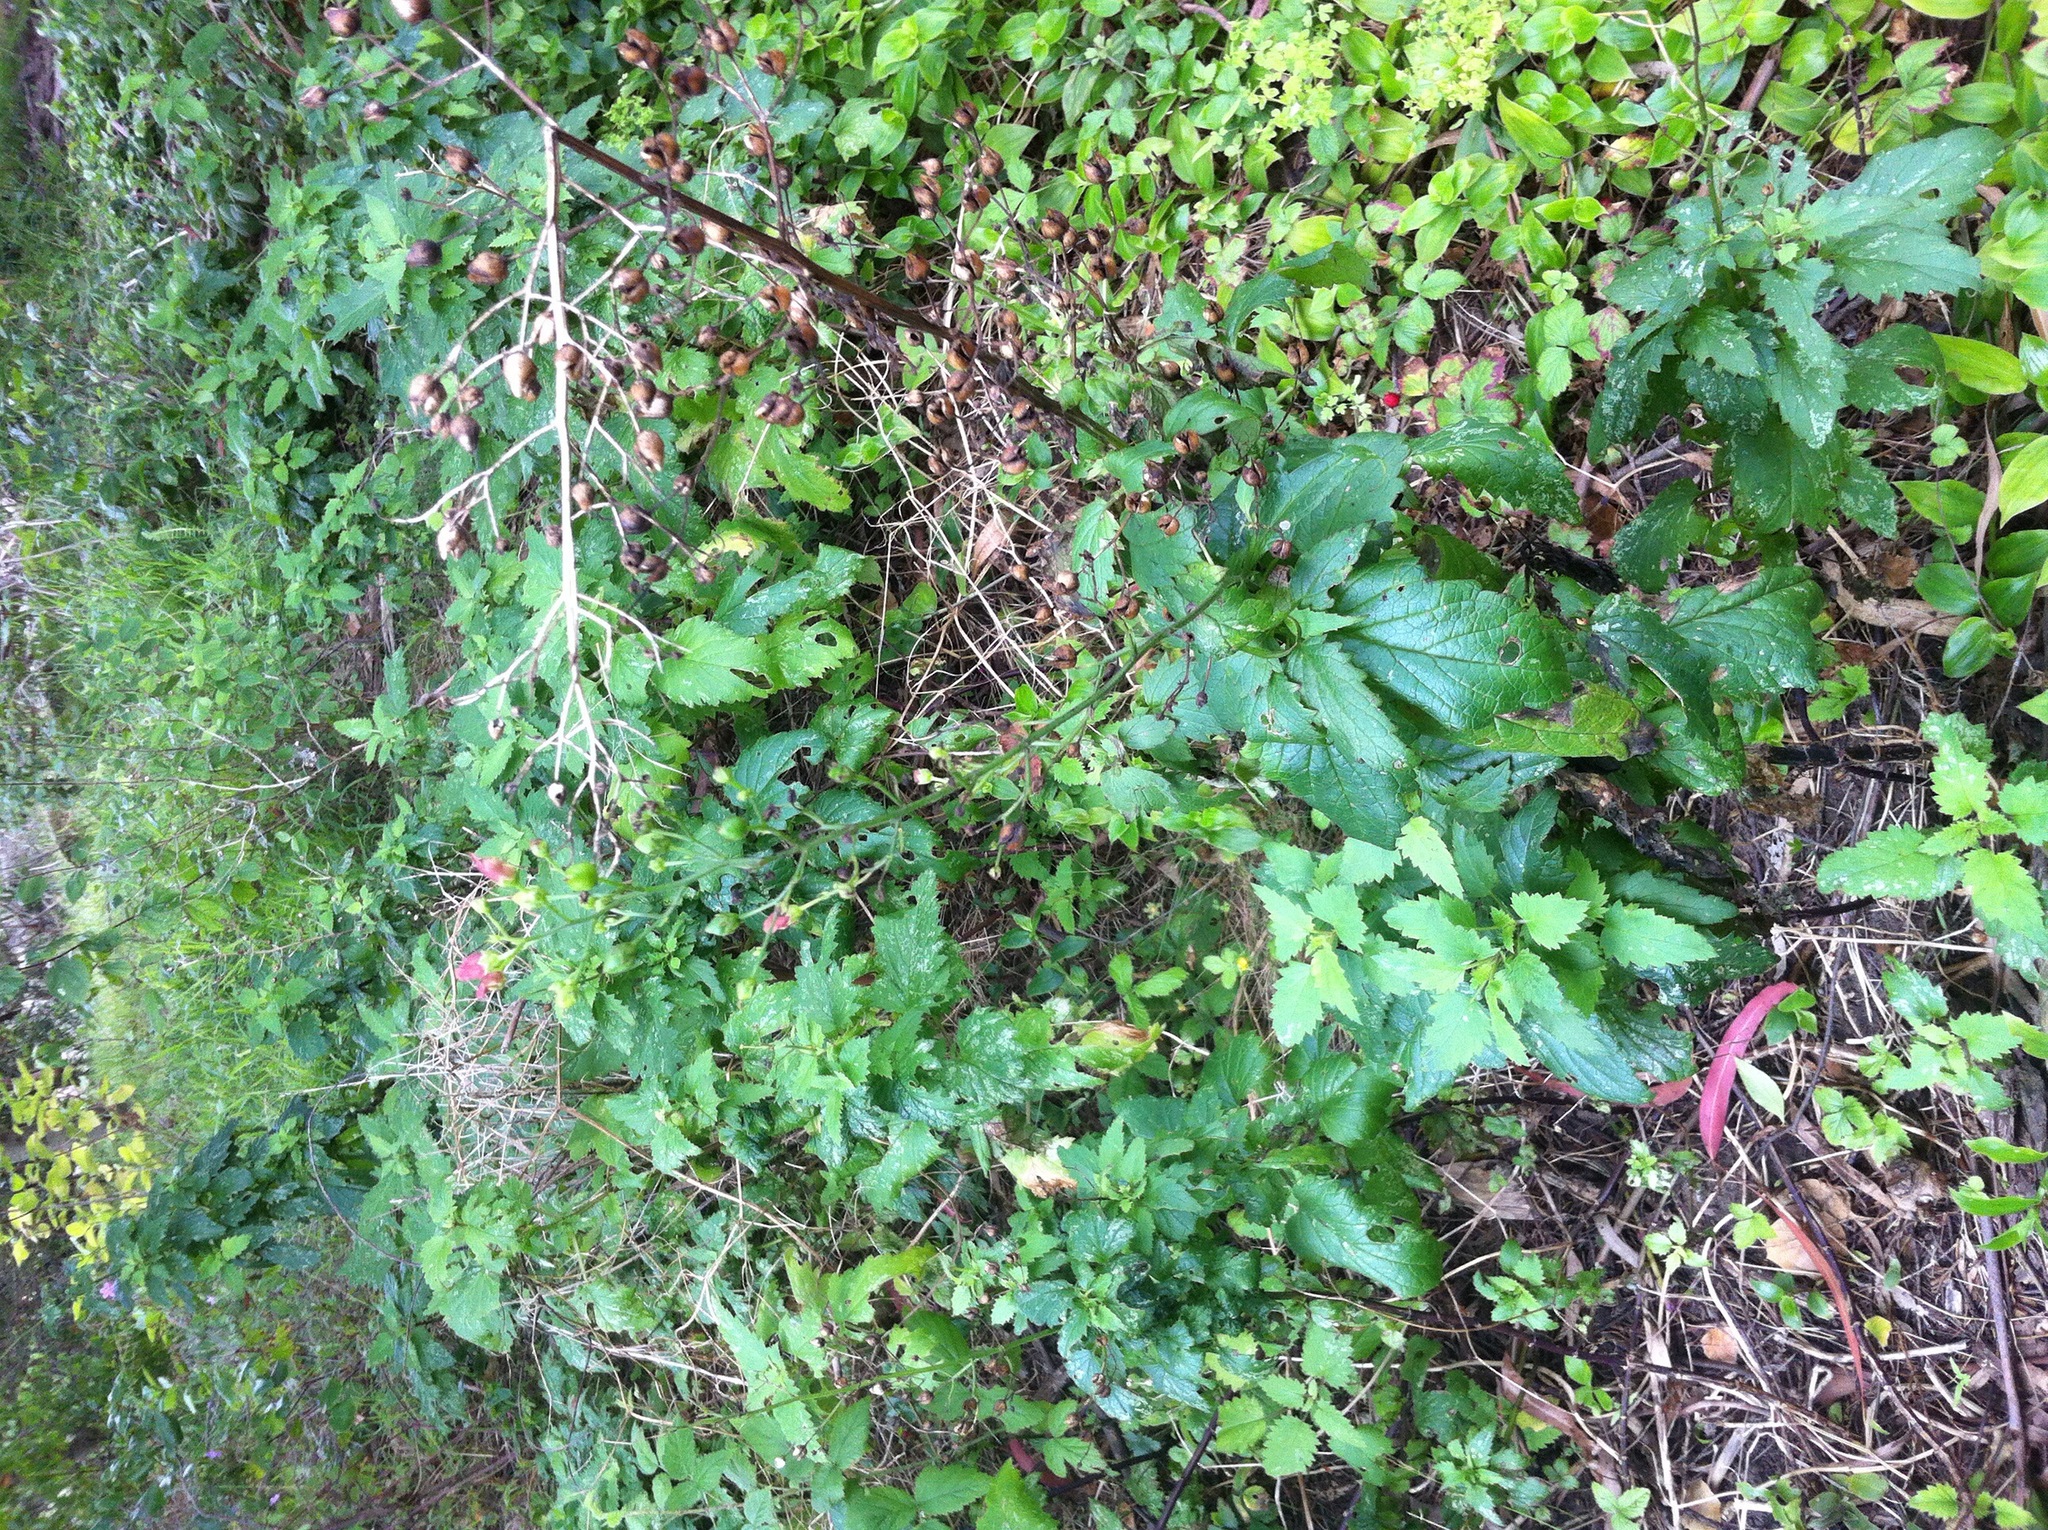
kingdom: Plantae
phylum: Tracheophyta
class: Magnoliopsida
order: Lamiales
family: Scrophulariaceae
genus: Scrophularia
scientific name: Scrophularia californica
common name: California figwort
